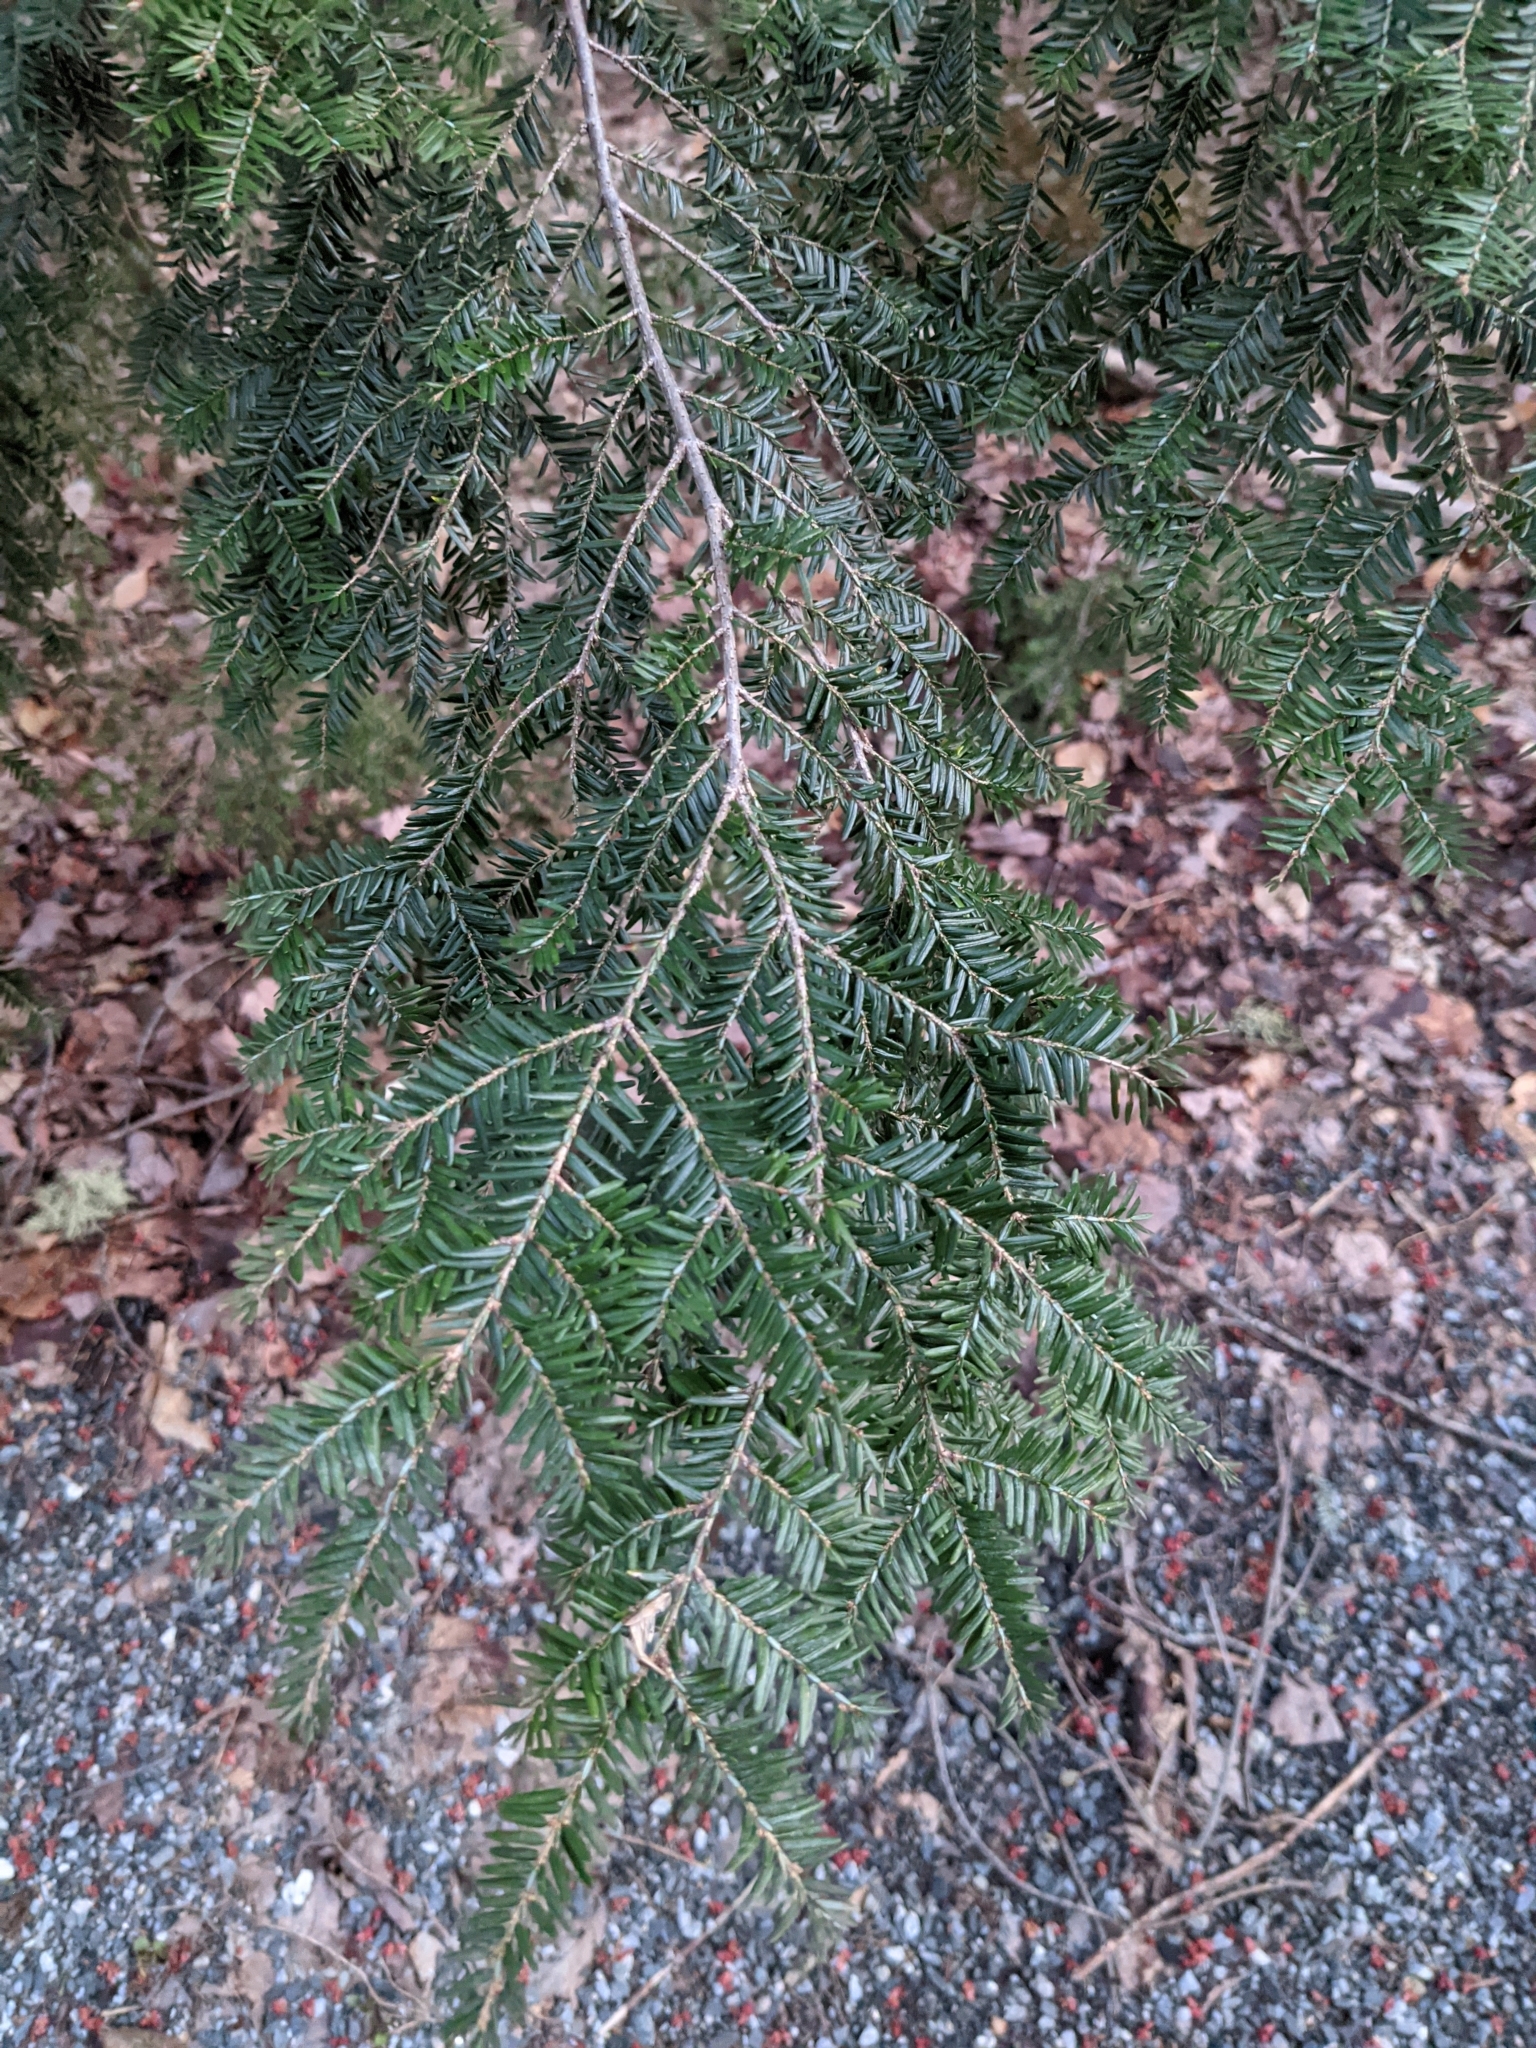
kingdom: Plantae
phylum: Tracheophyta
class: Pinopsida
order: Pinales
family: Pinaceae
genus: Tsuga
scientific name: Tsuga canadensis
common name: Eastern hemlock
